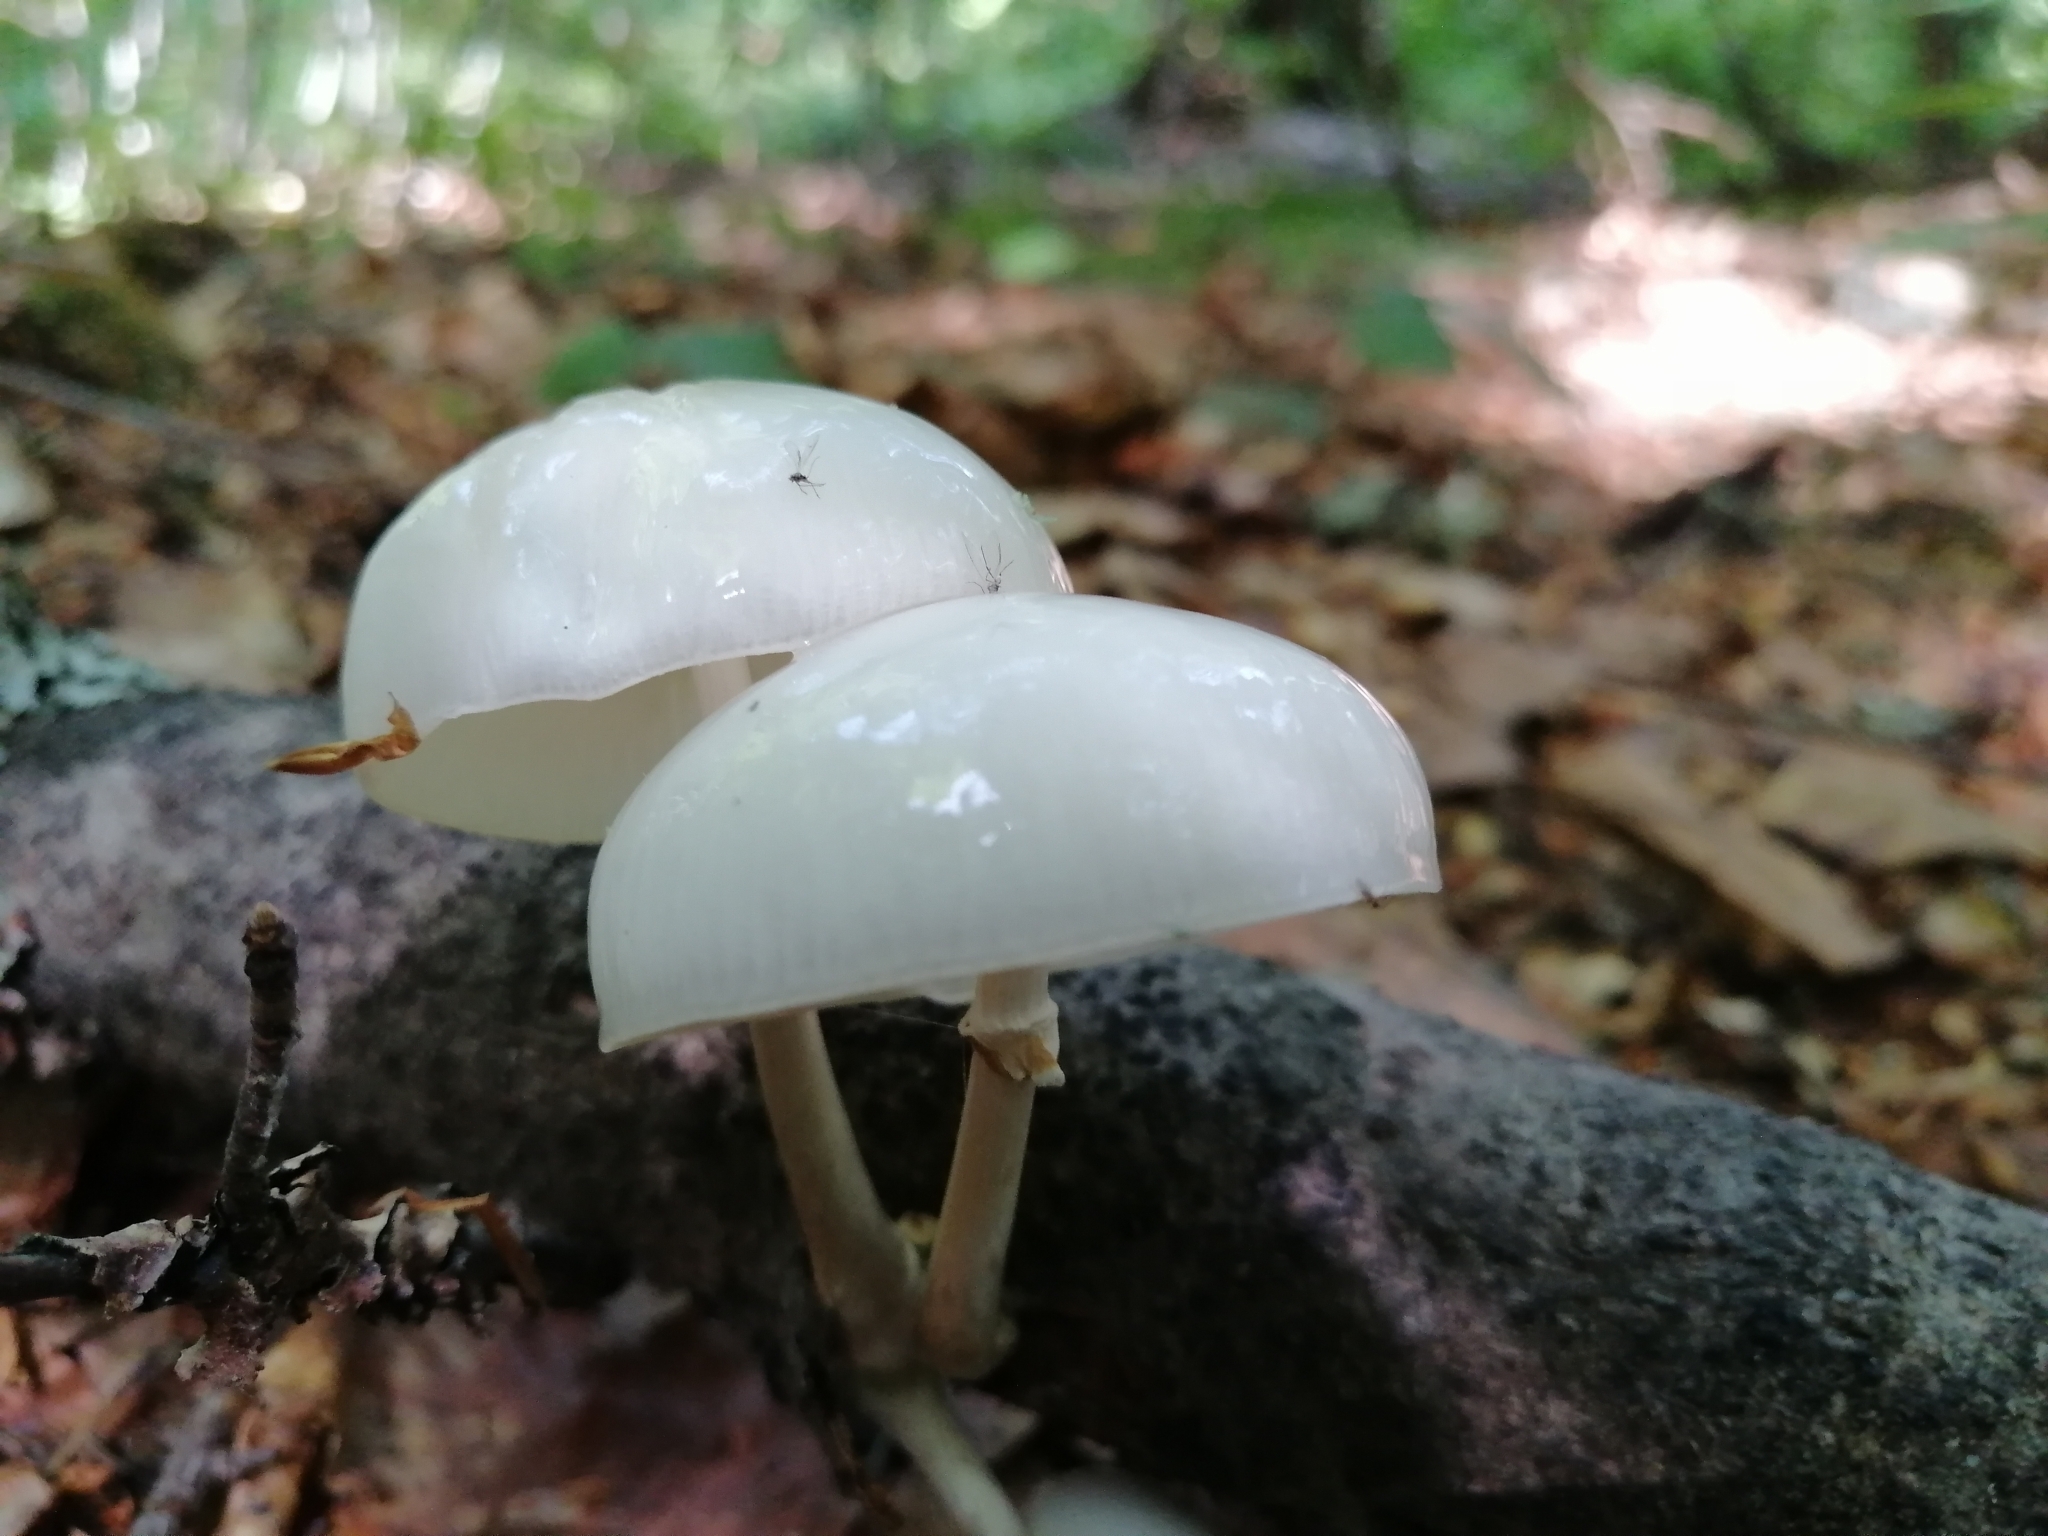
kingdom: Fungi
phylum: Basidiomycota
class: Agaricomycetes
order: Agaricales
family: Physalacriaceae
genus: Mucidula
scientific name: Mucidula mucida
